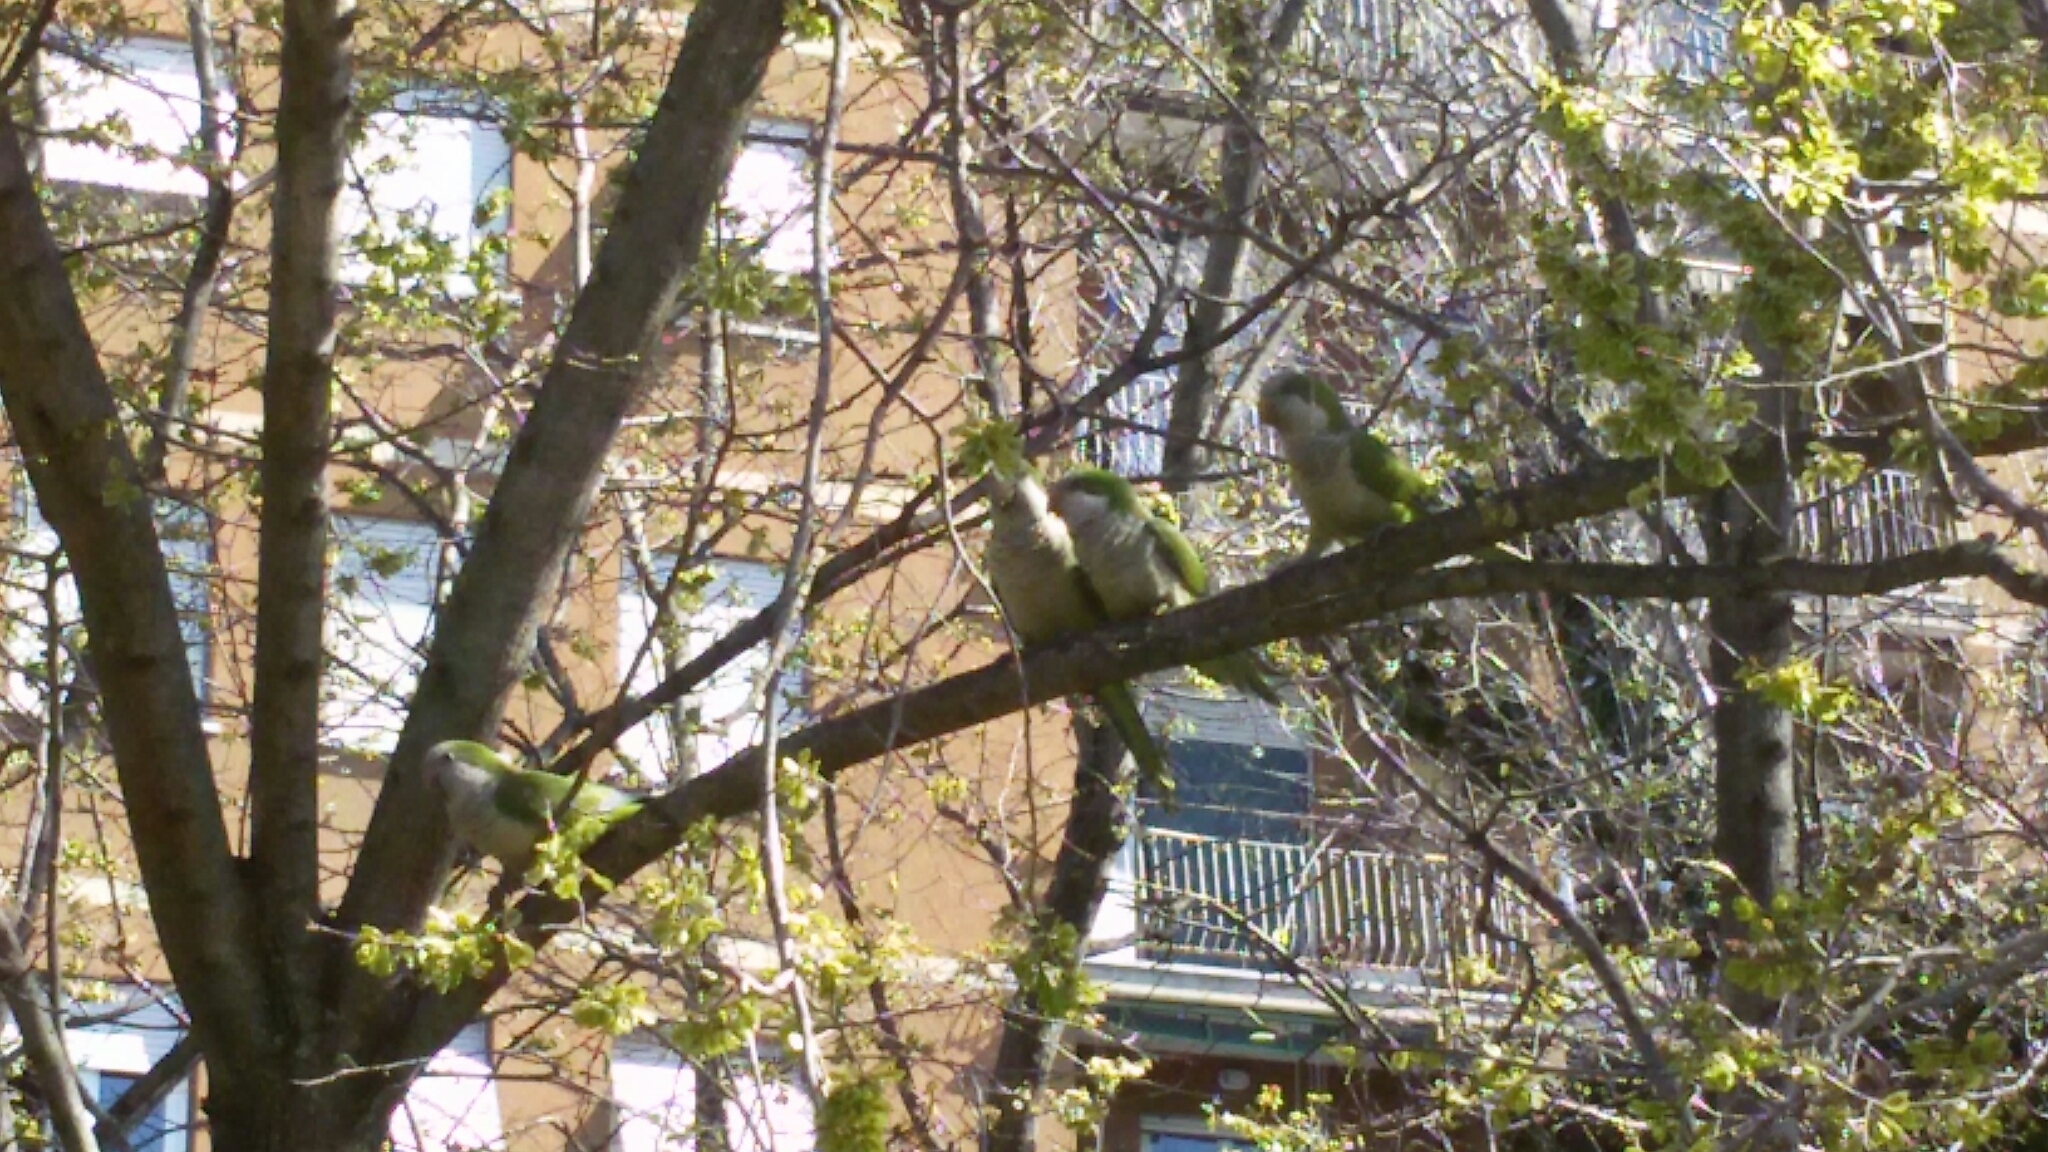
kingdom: Animalia
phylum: Chordata
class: Aves
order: Psittaciformes
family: Psittacidae
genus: Myiopsitta
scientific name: Myiopsitta monachus
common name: Monk parakeet
